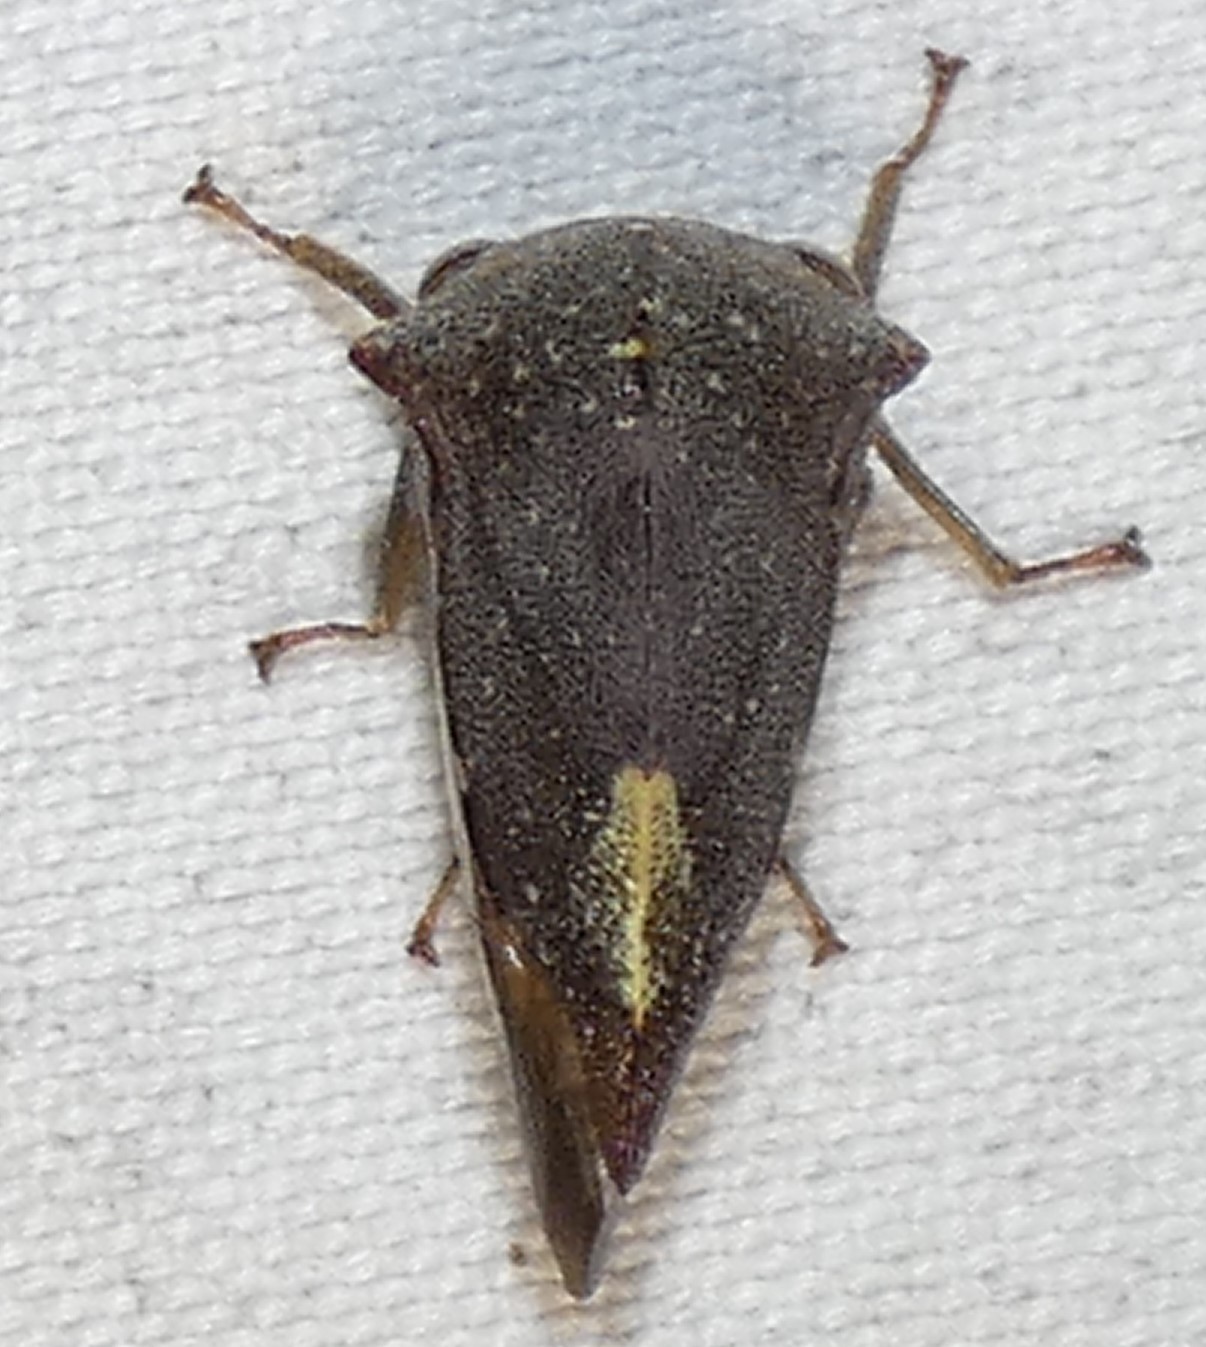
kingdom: Animalia
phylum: Arthropoda
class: Insecta
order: Hemiptera
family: Membracidae
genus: Telamona
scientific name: Telamona monticola
